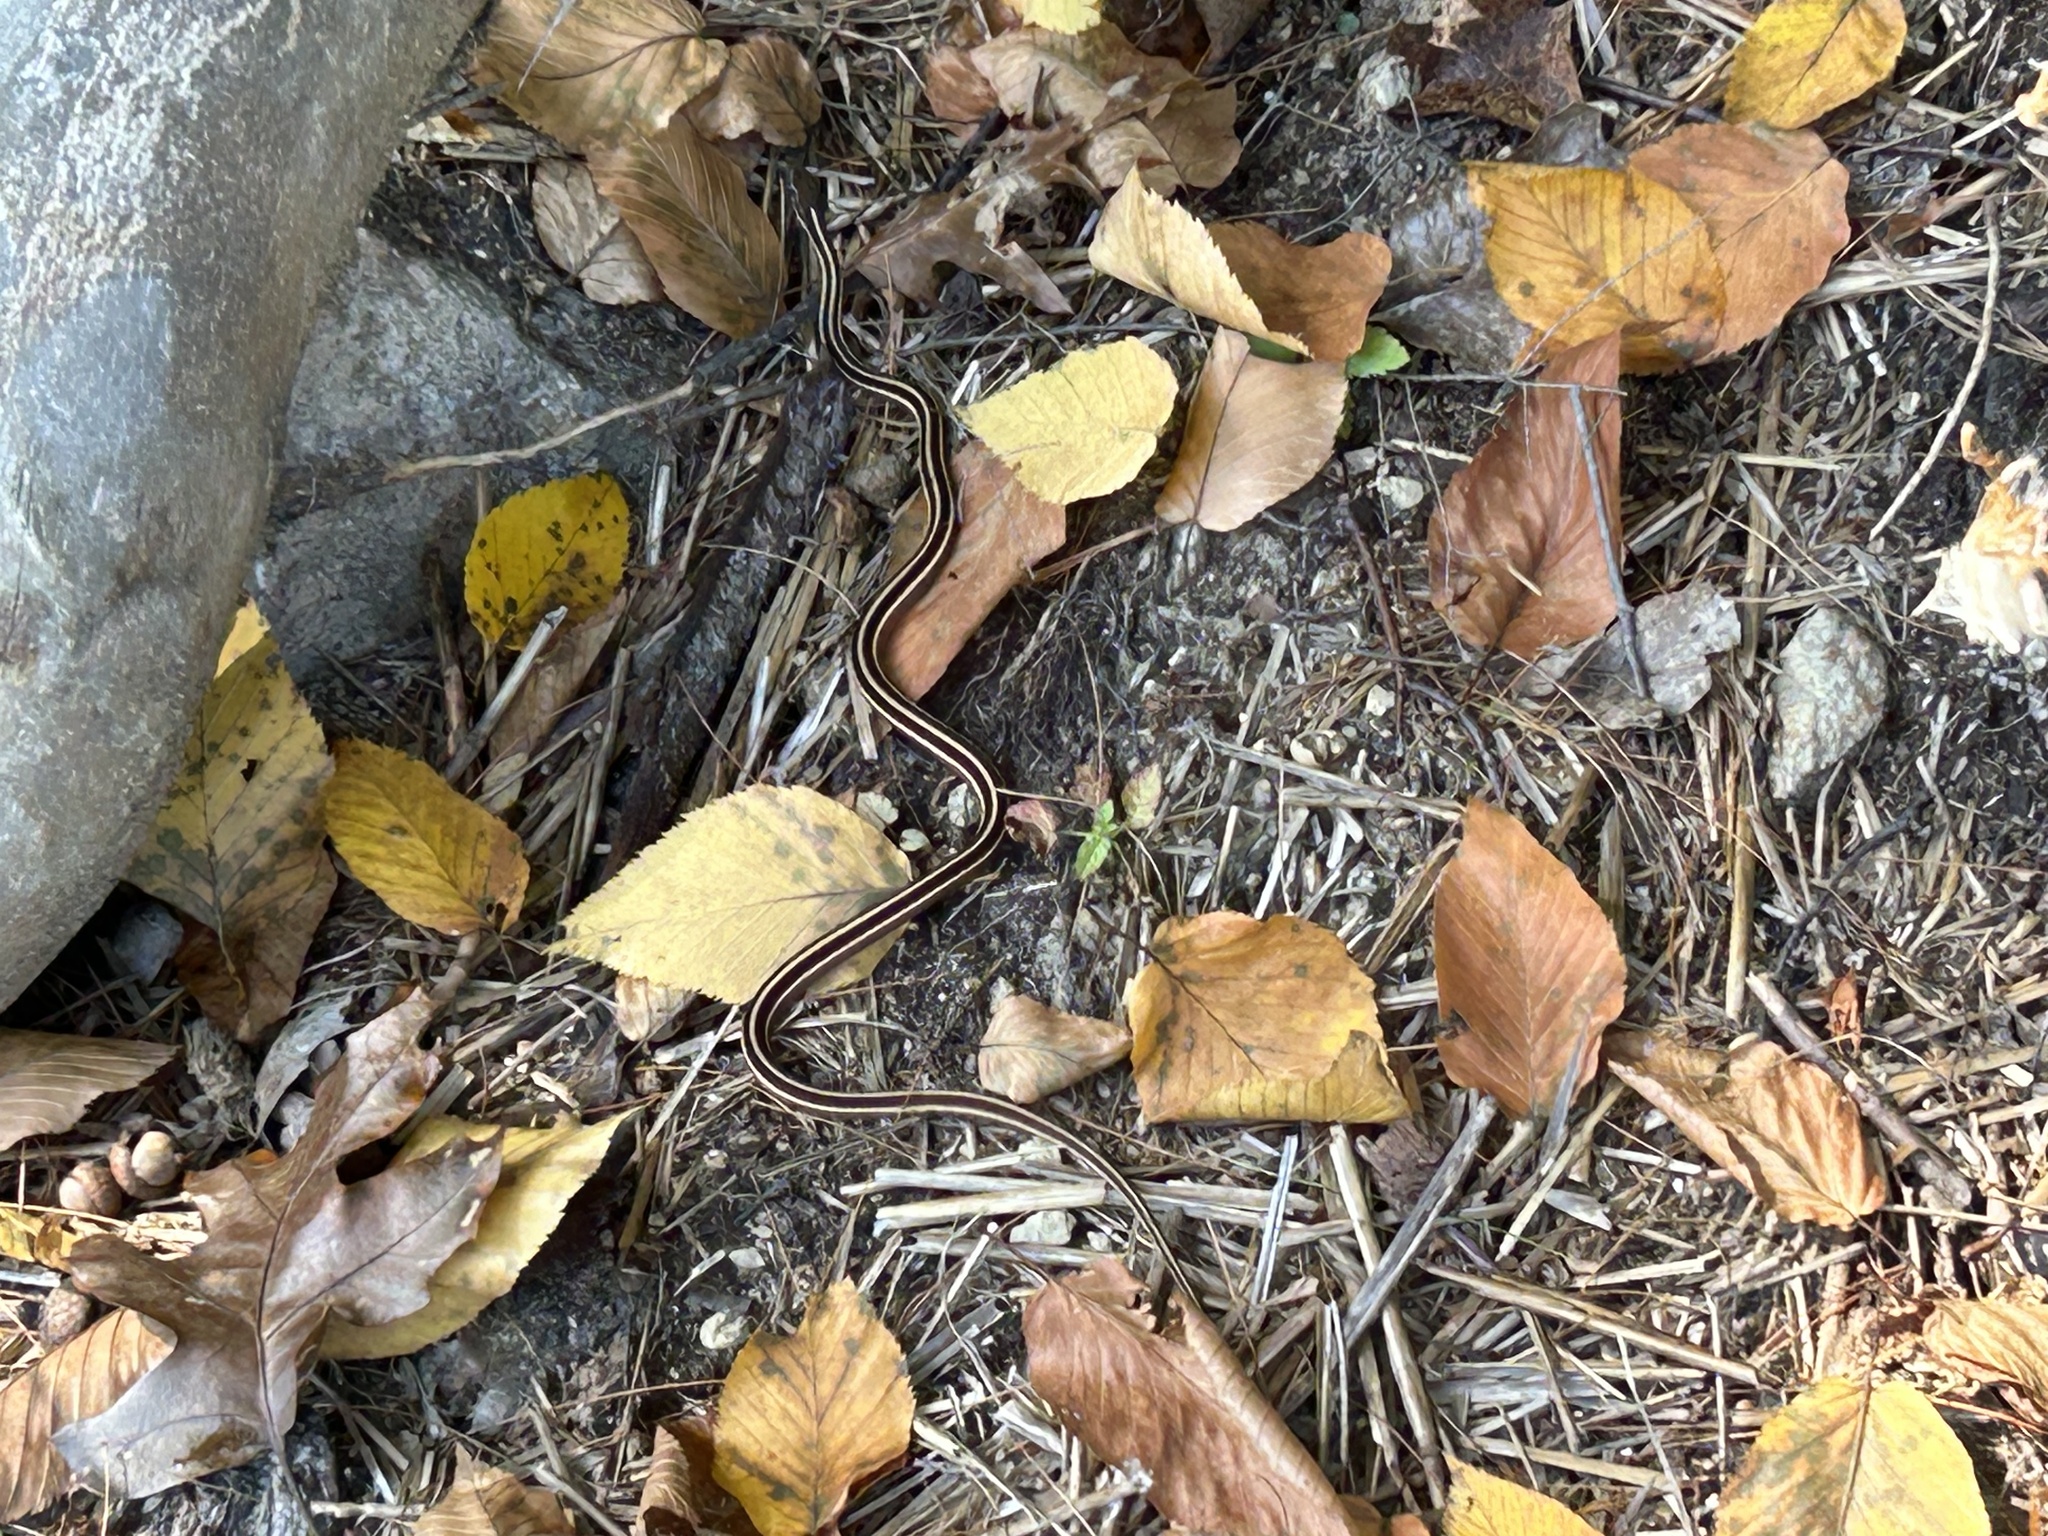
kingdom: Animalia
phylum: Chordata
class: Squamata
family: Colubridae
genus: Thamnophis
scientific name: Thamnophis saurita
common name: Eastern ribbonsnake
